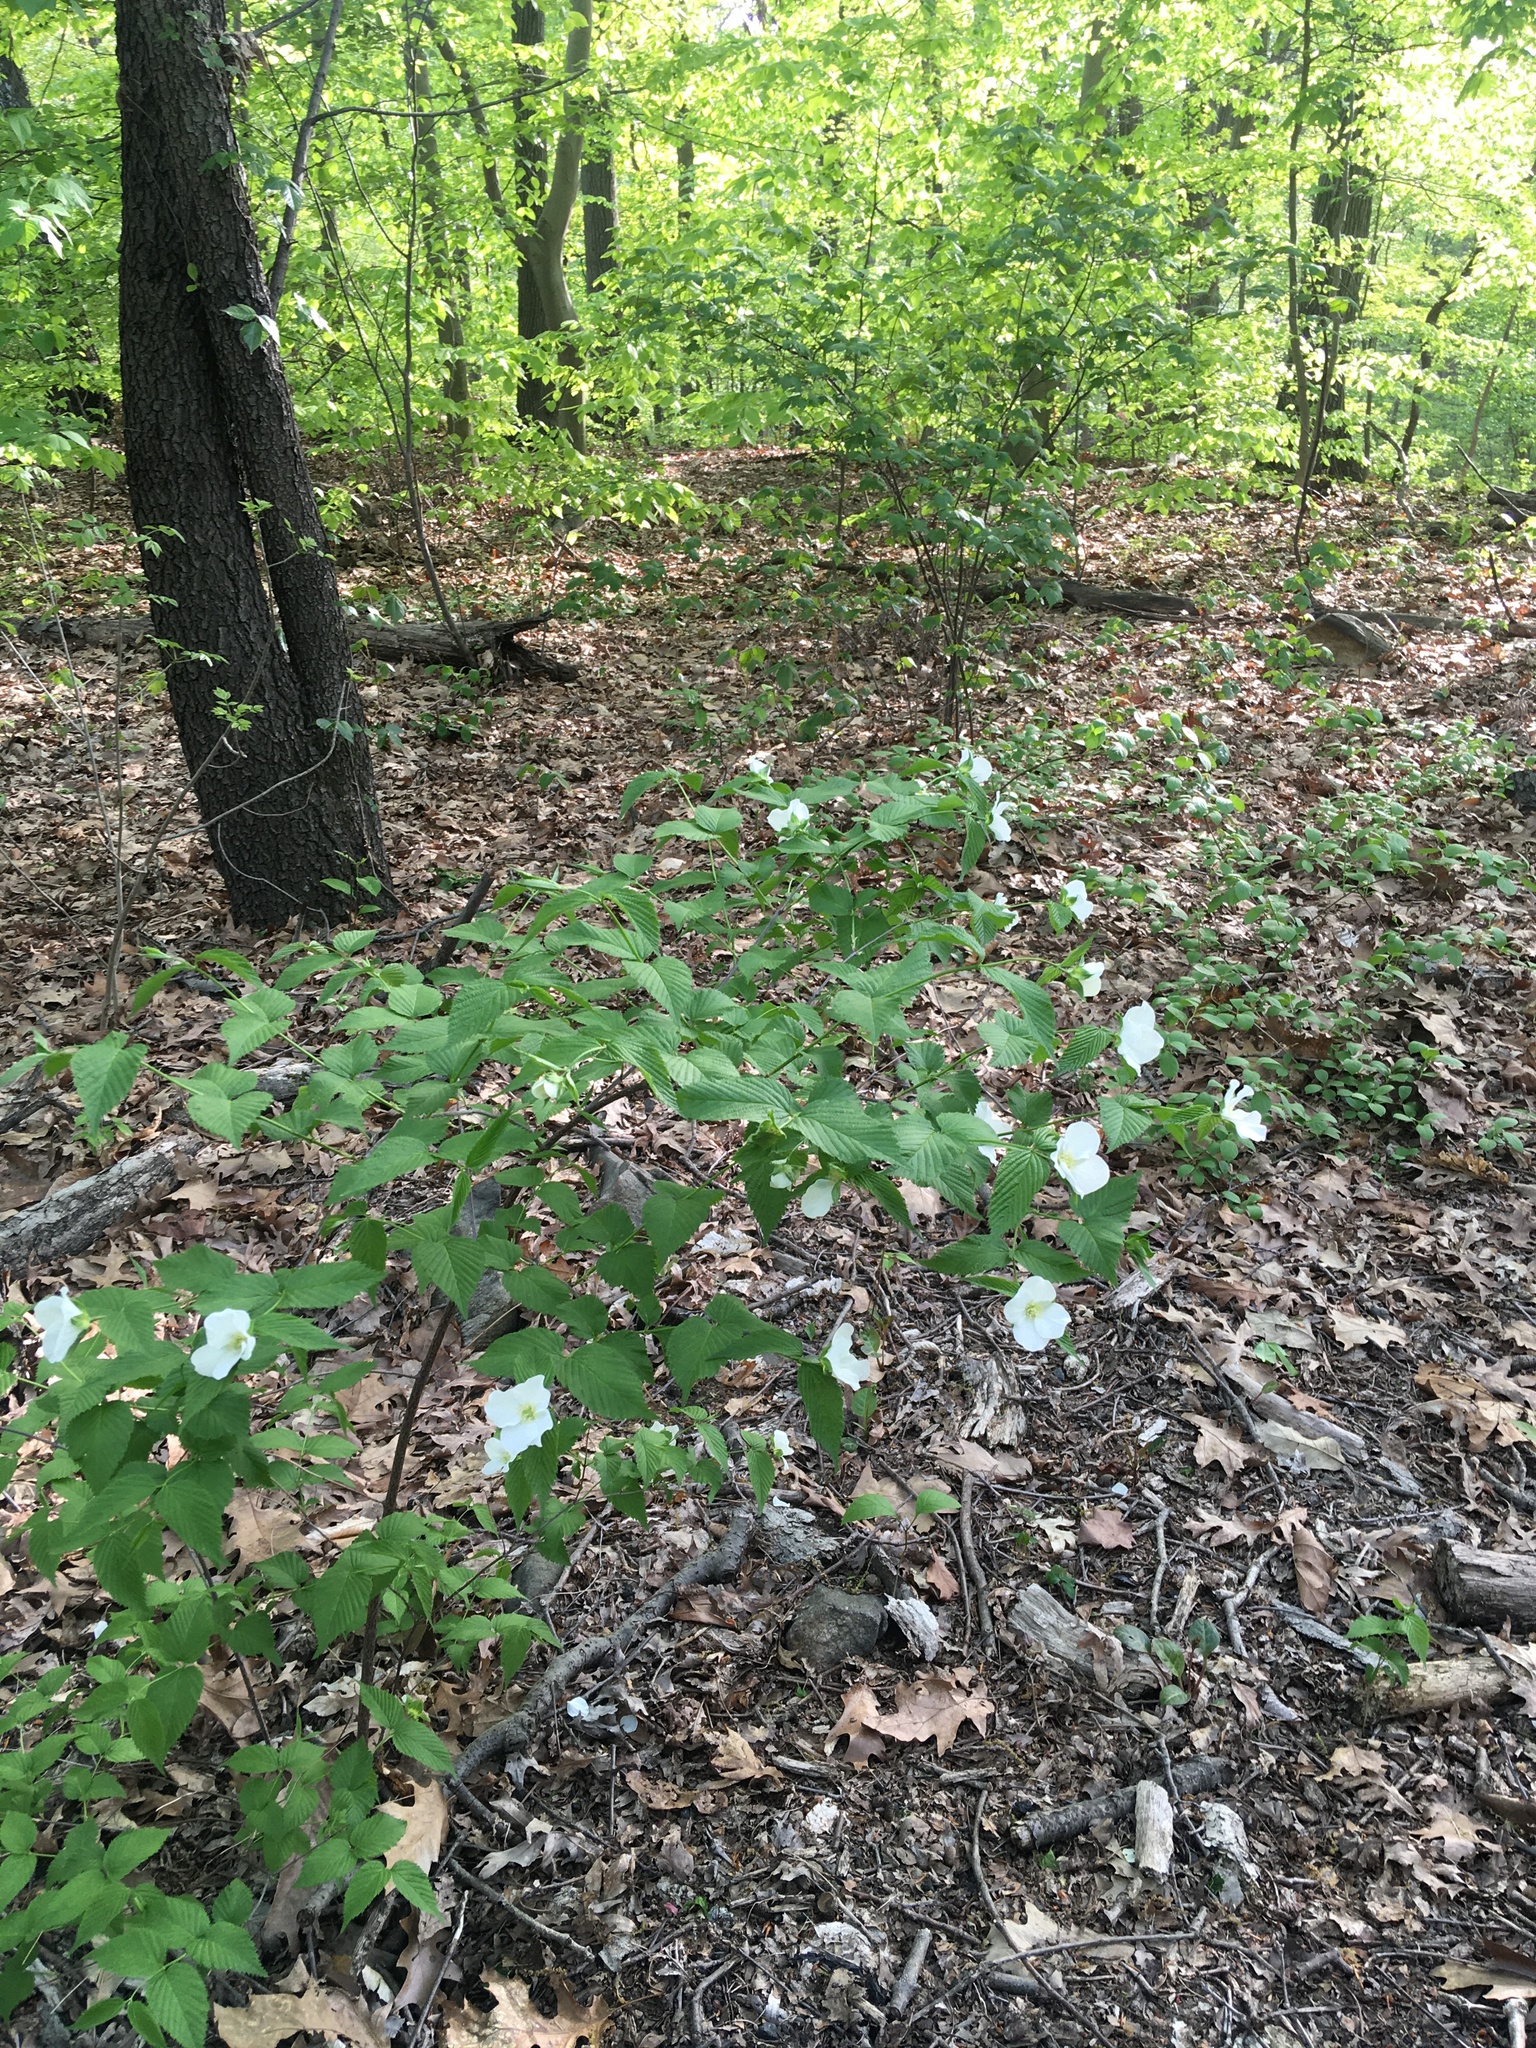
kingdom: Plantae
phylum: Tracheophyta
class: Magnoliopsida
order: Rosales
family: Rosaceae
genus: Rhodotypos
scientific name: Rhodotypos scandens
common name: Jetbead
